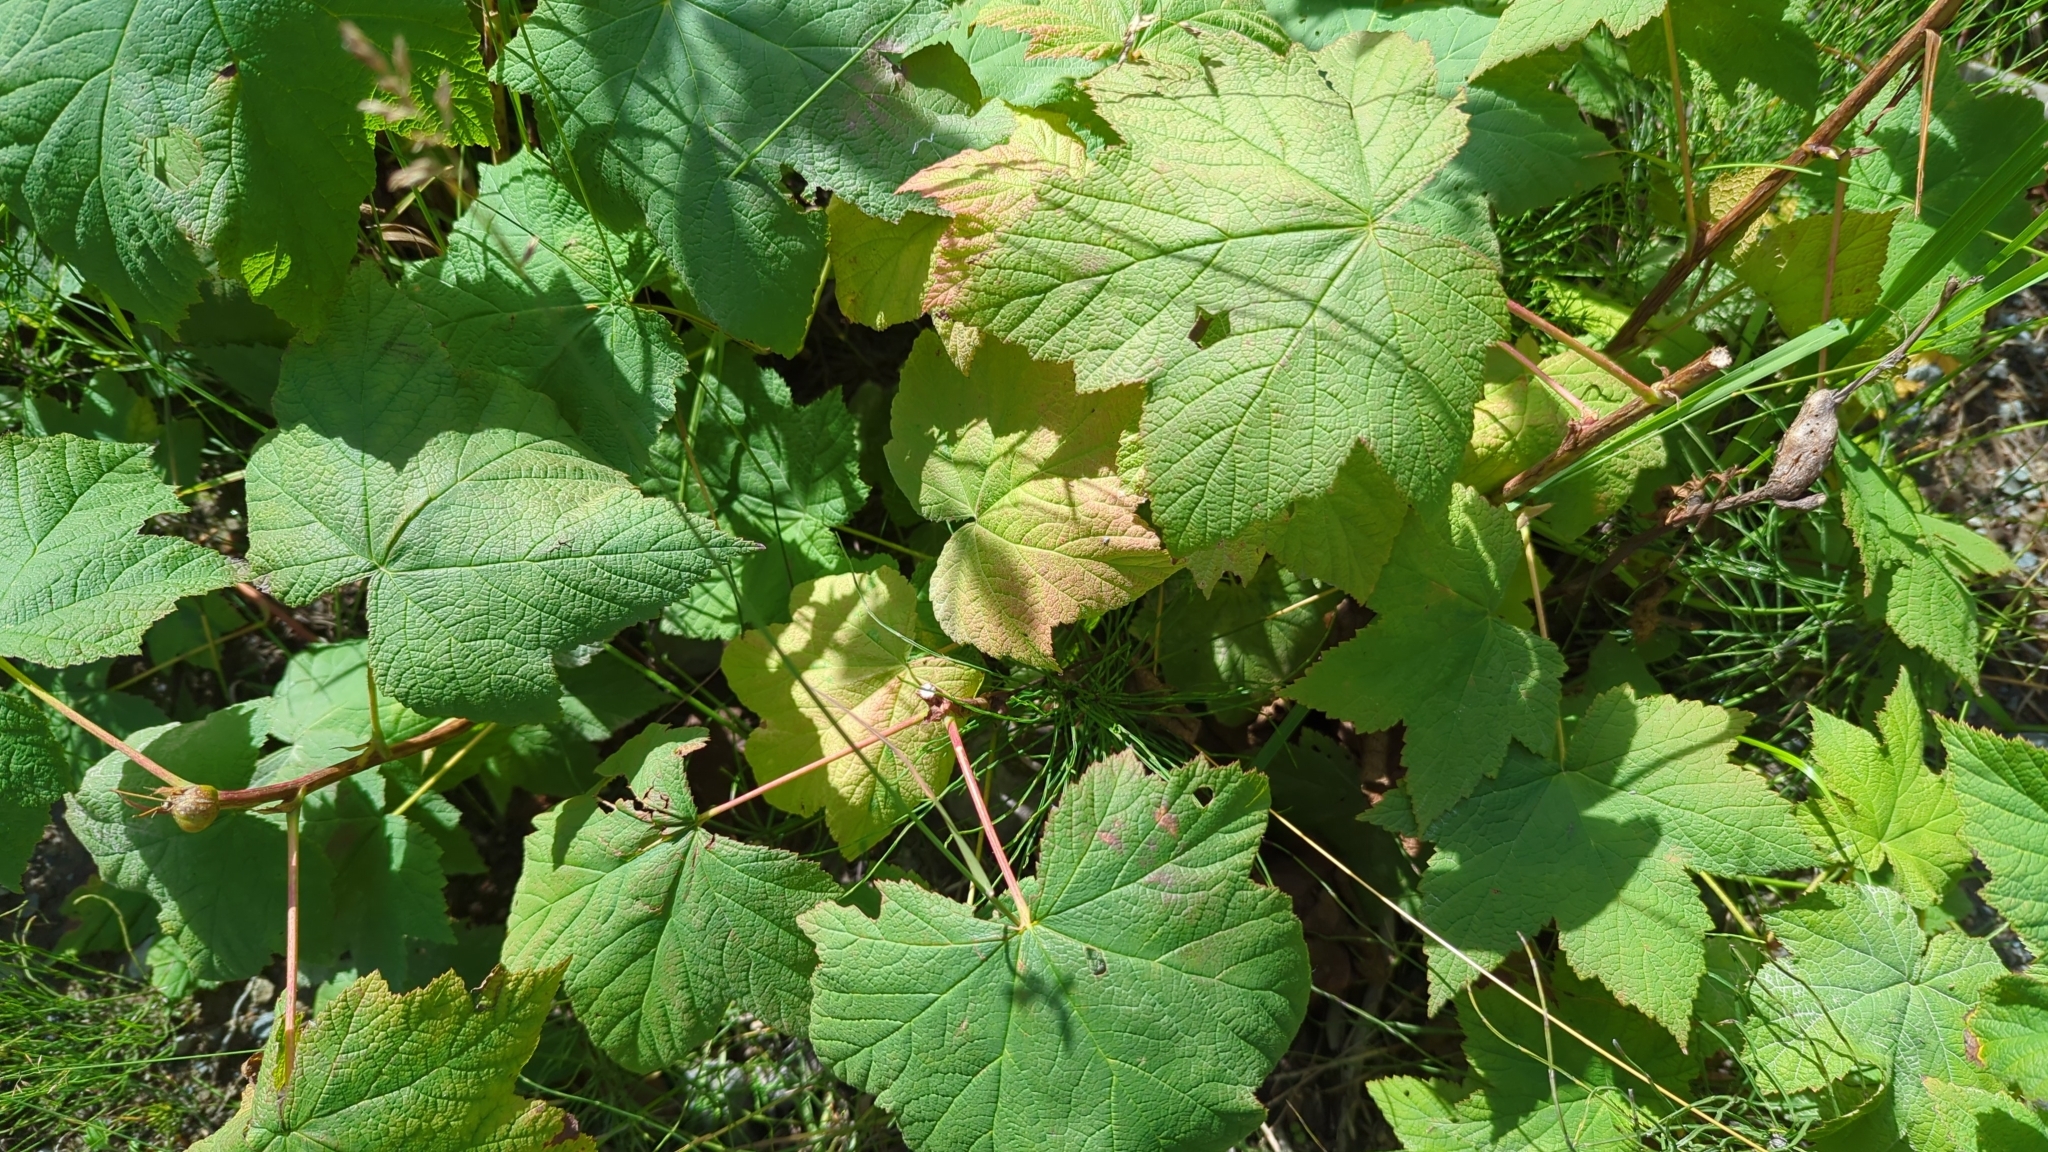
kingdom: Plantae
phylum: Tracheophyta
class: Magnoliopsida
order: Rosales
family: Rosaceae
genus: Rubus
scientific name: Rubus parviflorus
